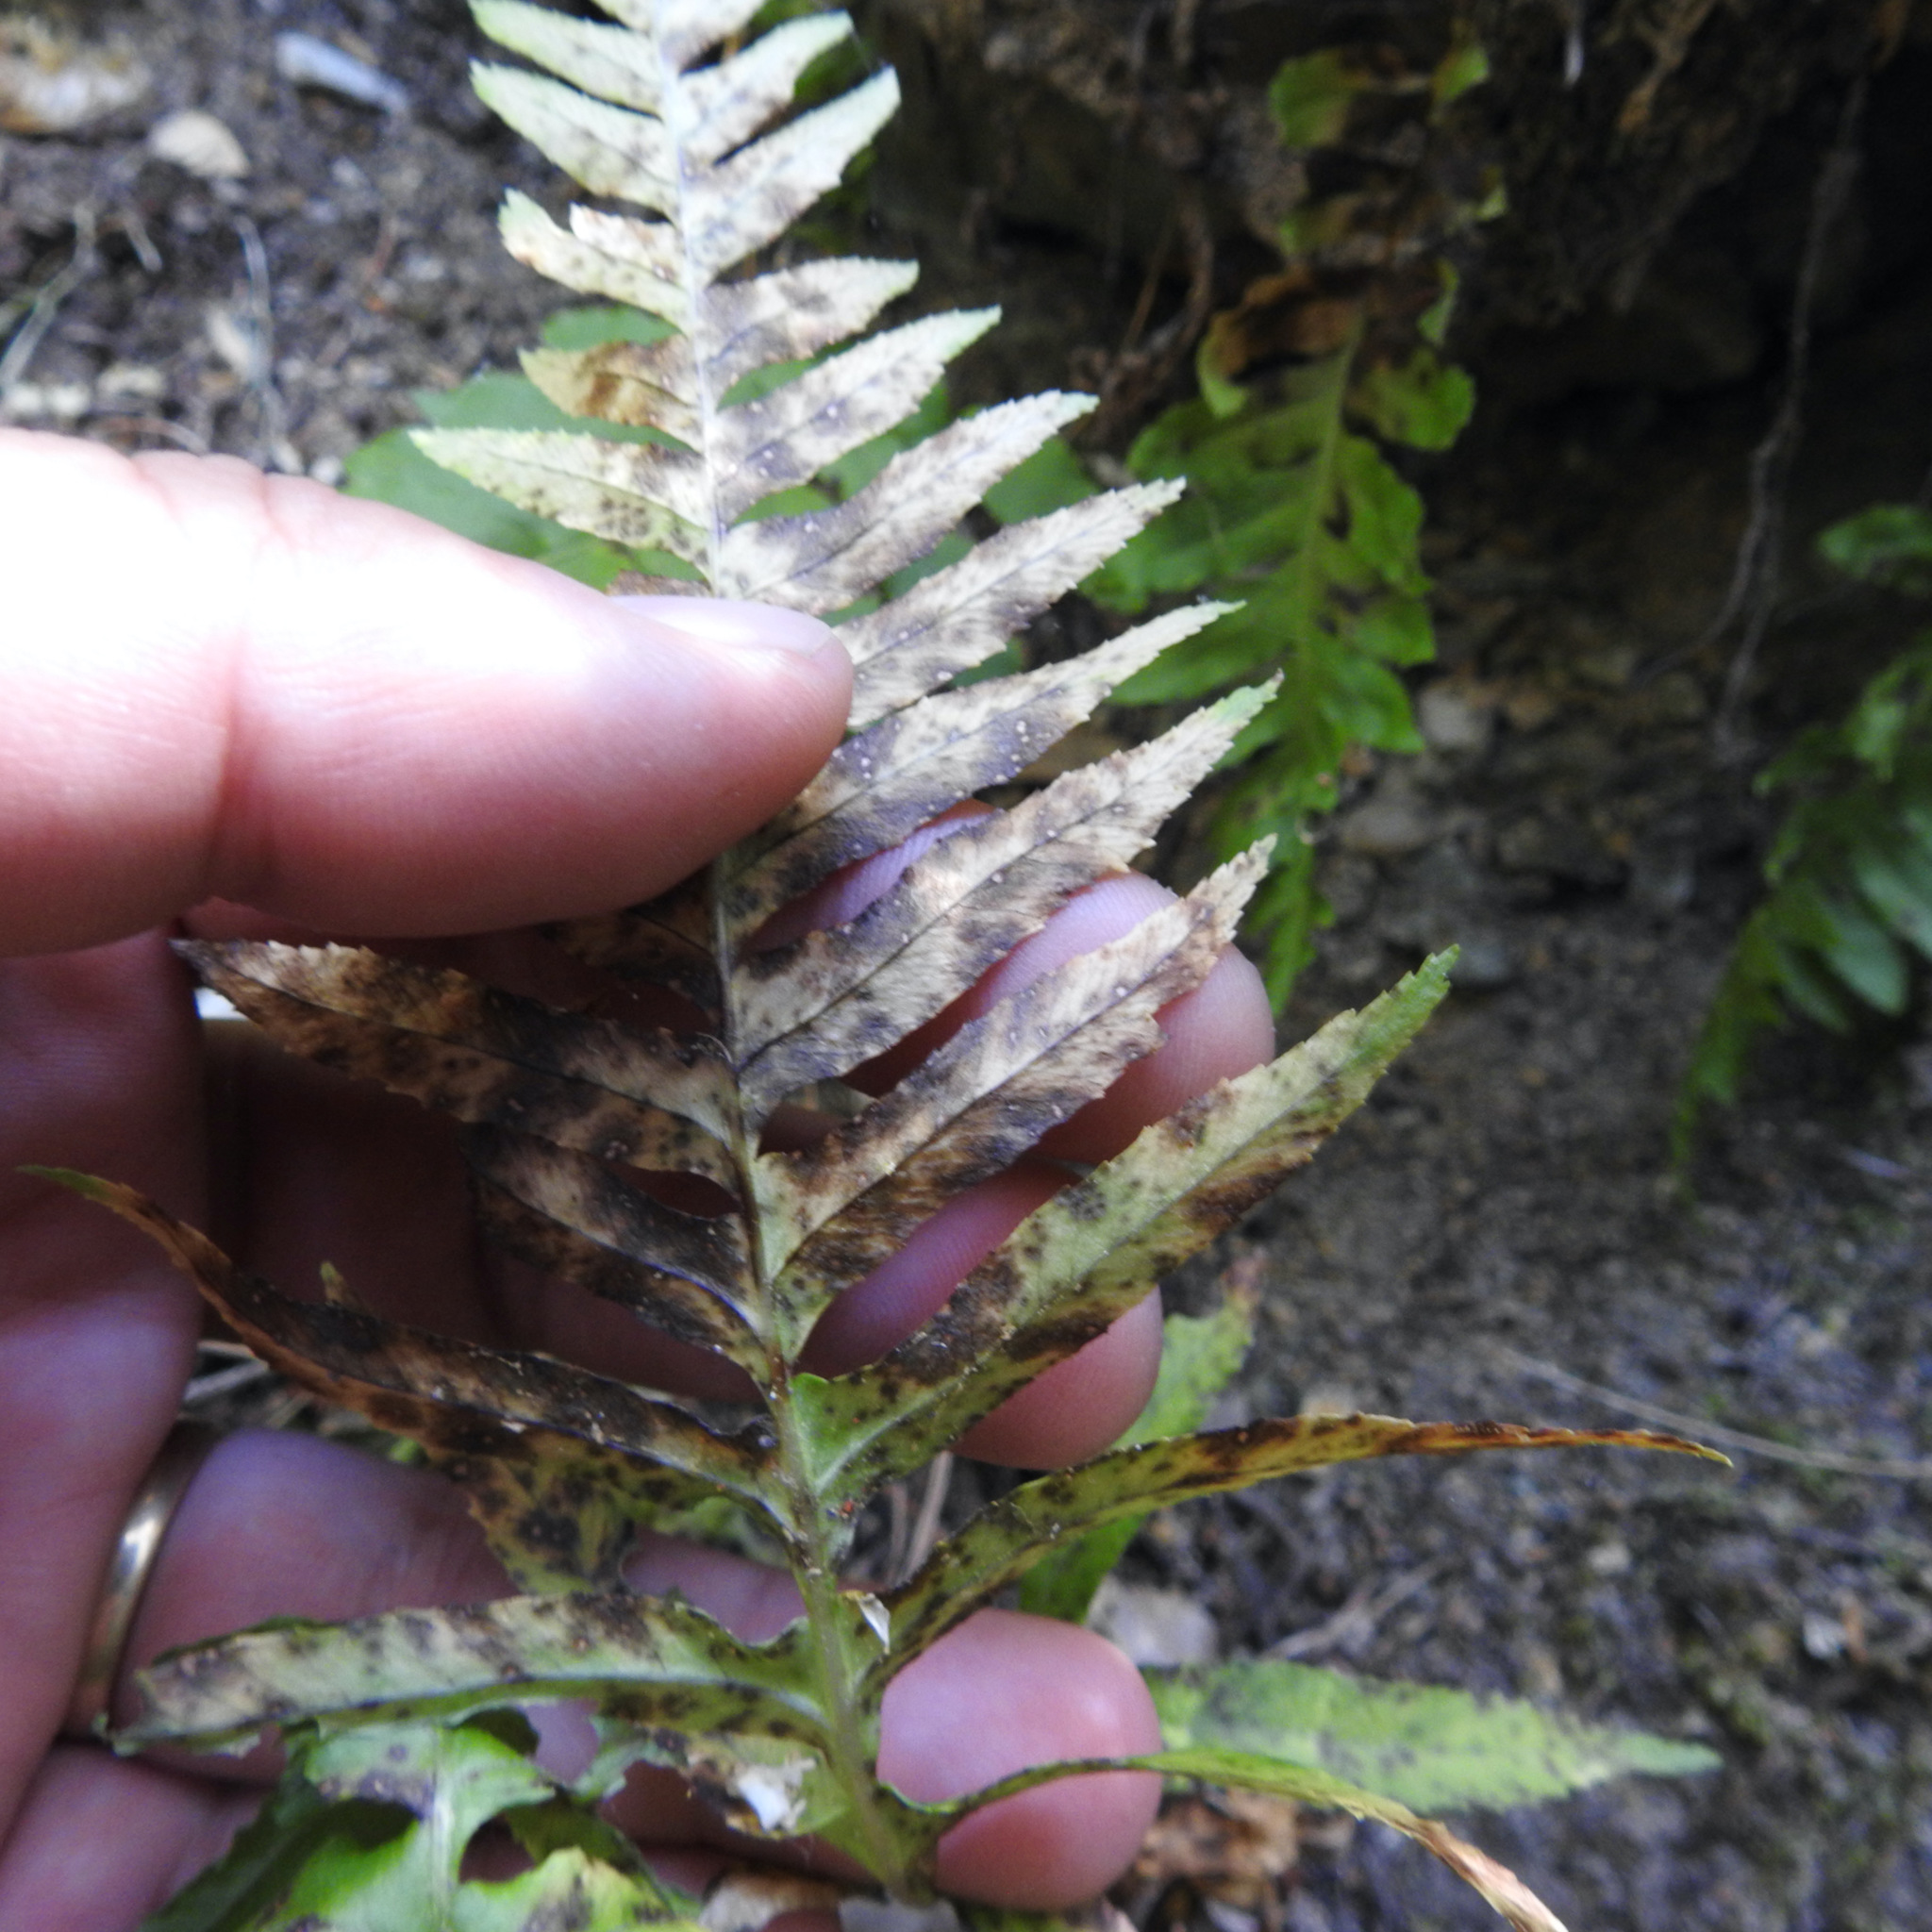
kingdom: Plantae
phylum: Tracheophyta
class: Polypodiopsida
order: Polypodiales
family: Polypodiaceae
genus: Polypodium
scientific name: Polypodium glycyrrhiza
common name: Licorice fern
